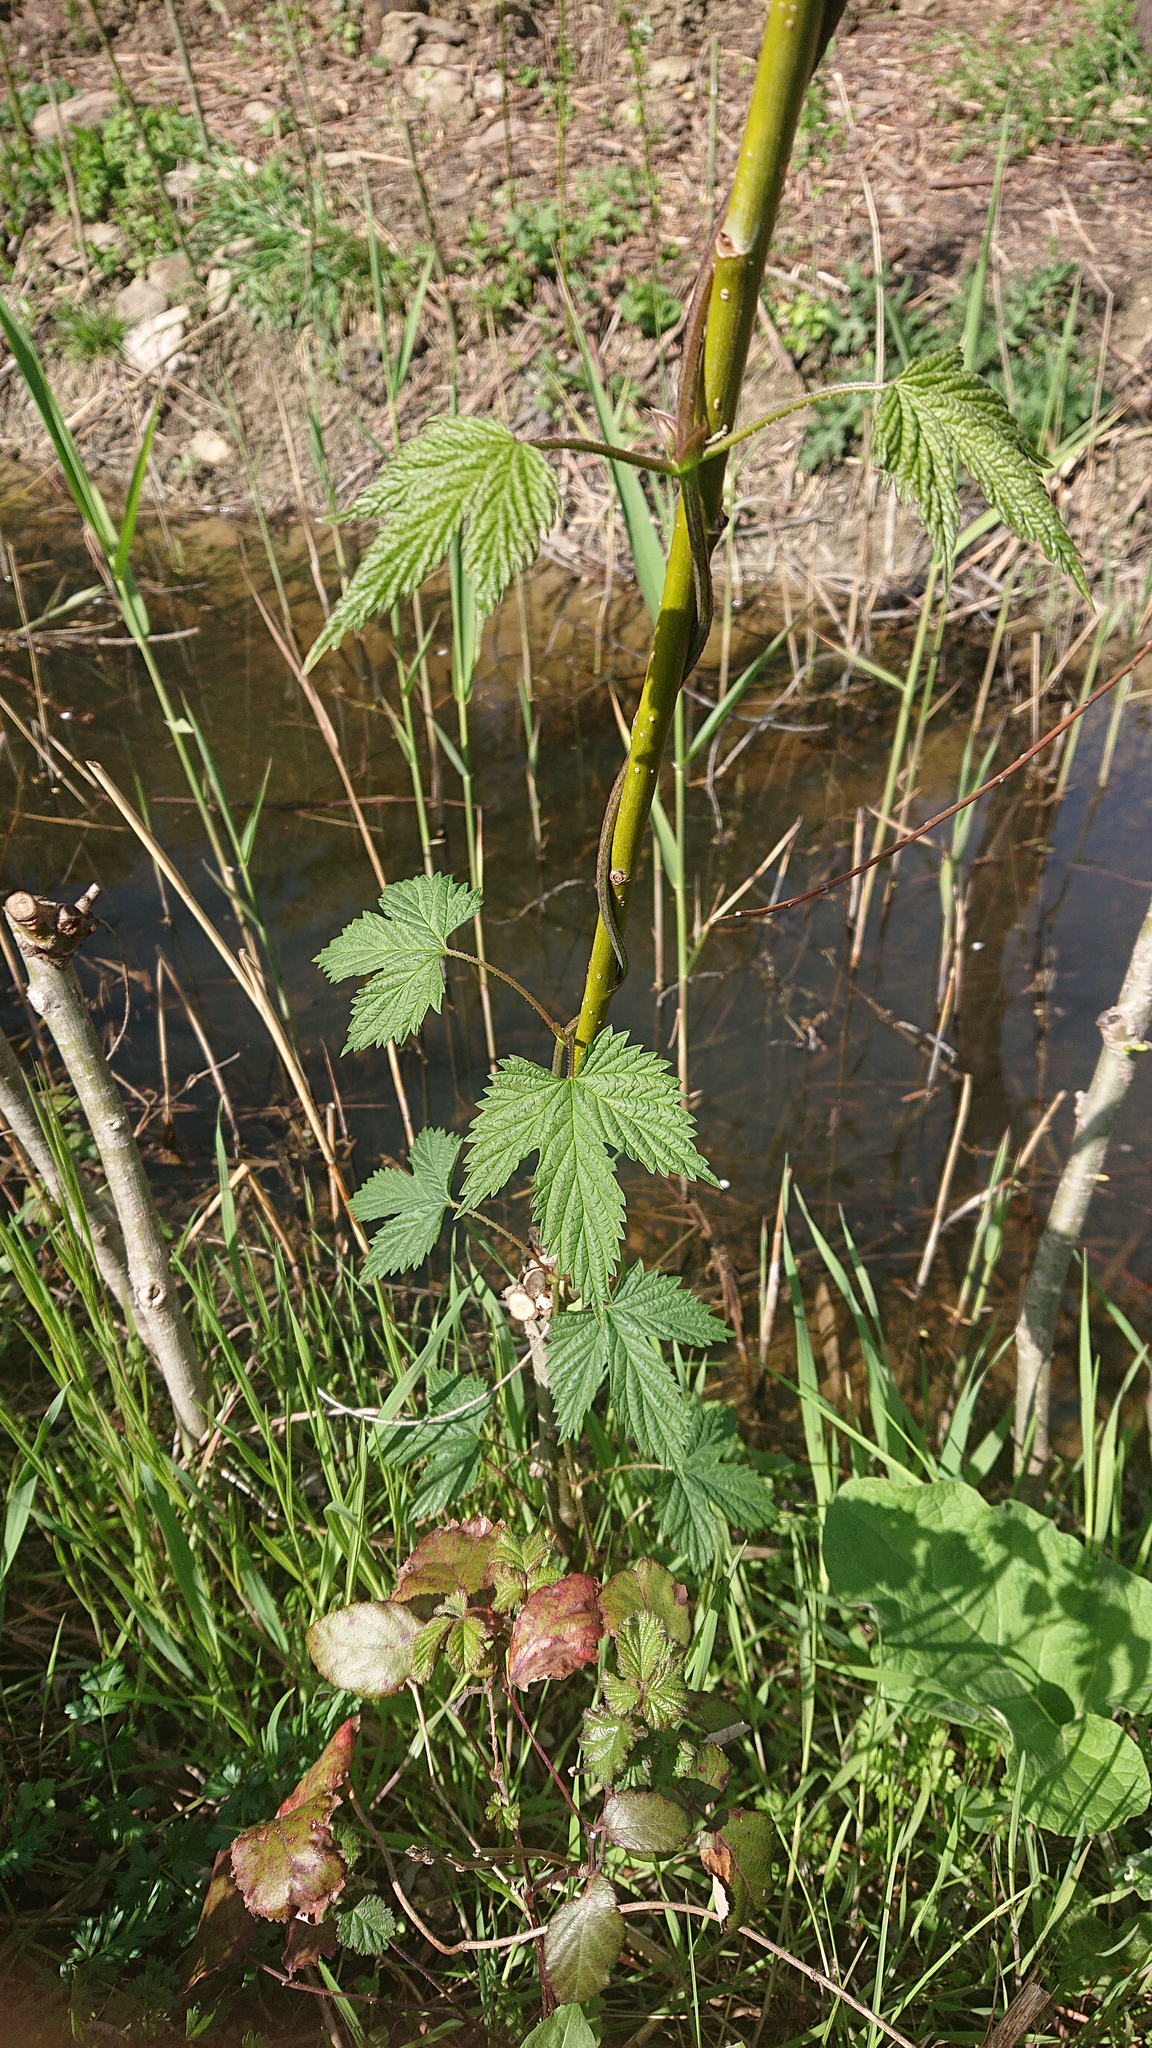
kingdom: Plantae
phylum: Tracheophyta
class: Magnoliopsida
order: Rosales
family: Cannabaceae
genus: Humulus
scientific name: Humulus lupulus
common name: Hop
